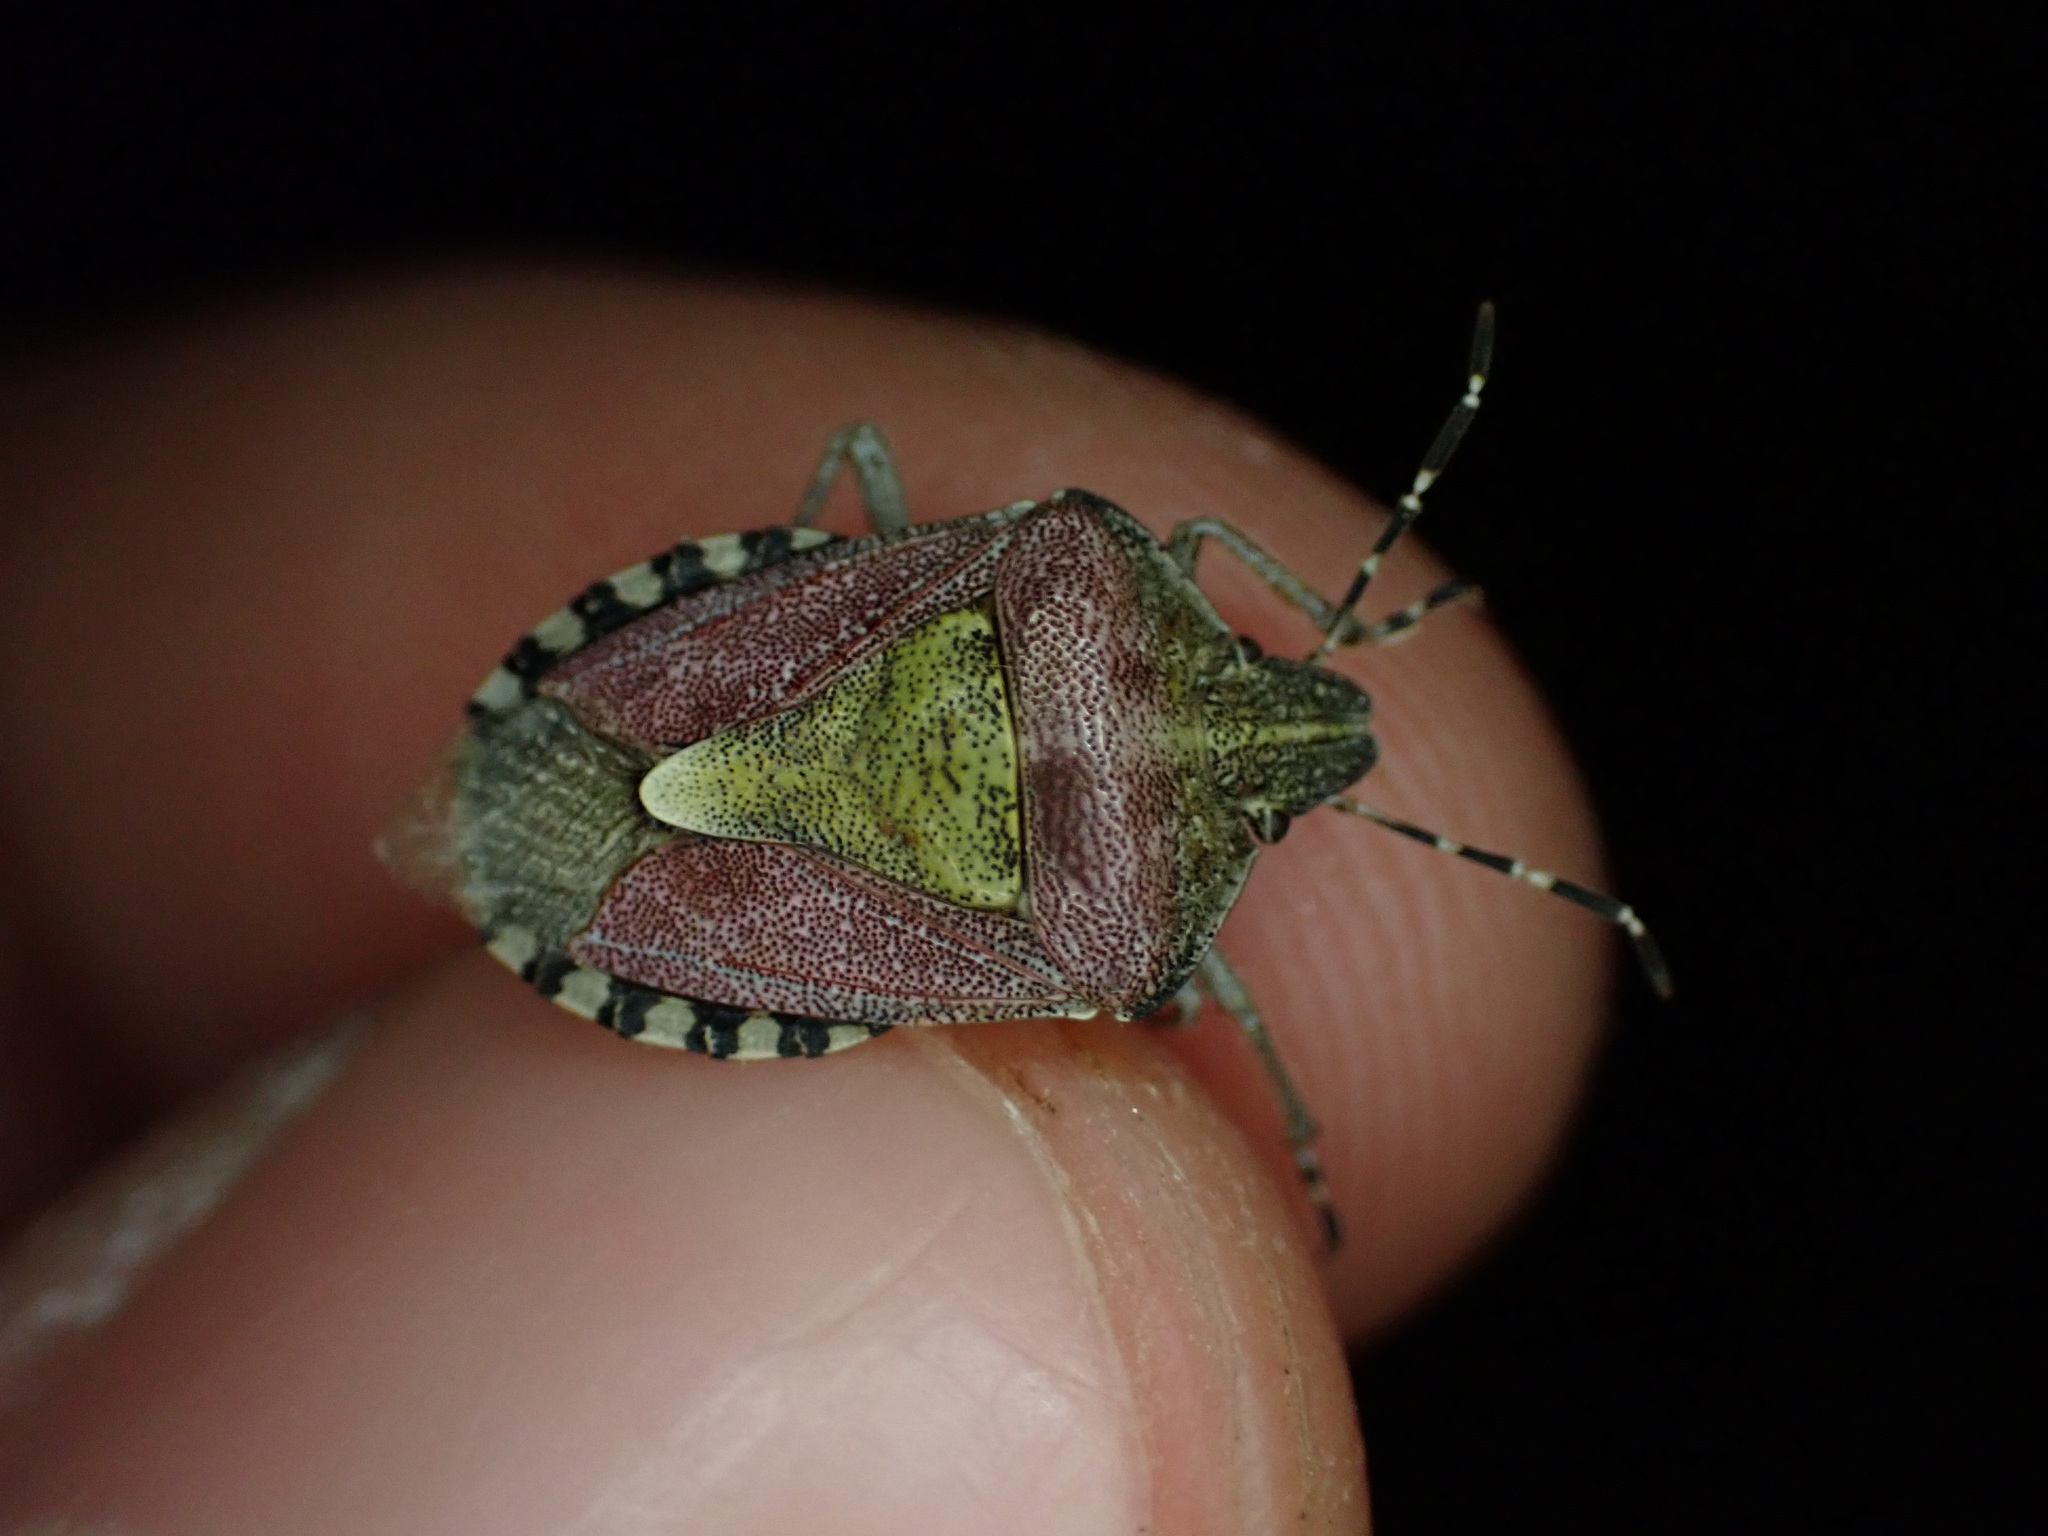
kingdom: Animalia
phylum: Arthropoda
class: Insecta
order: Hemiptera
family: Pentatomidae
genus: Dolycoris
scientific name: Dolycoris baccarum
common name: Sloe bug
